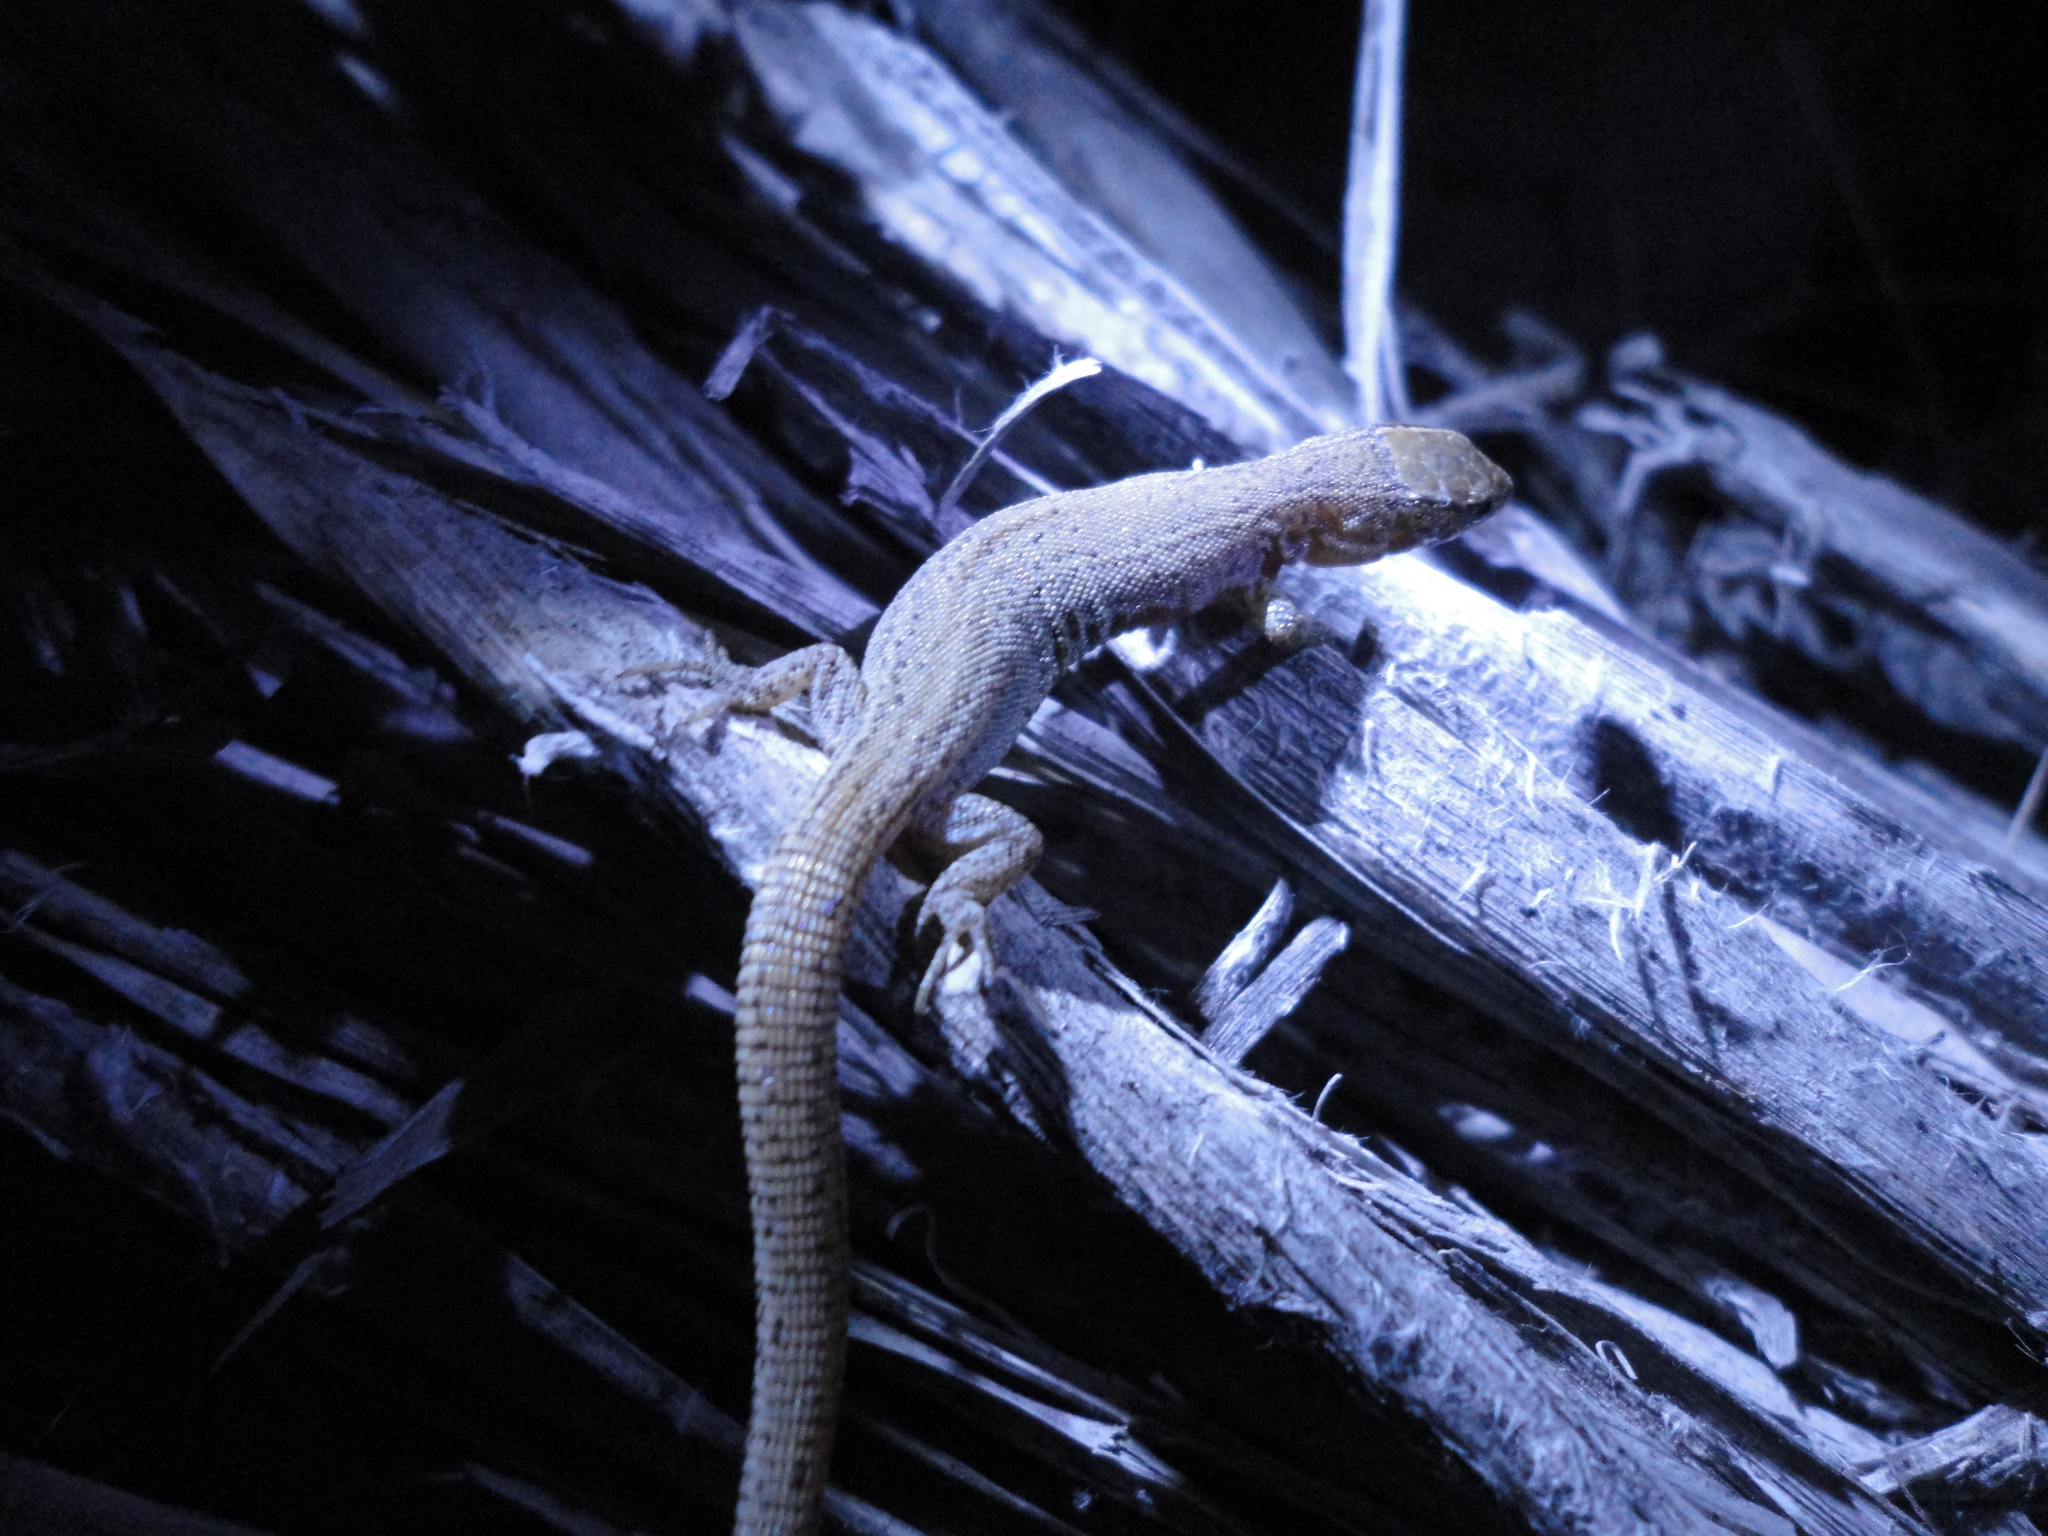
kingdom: Animalia
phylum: Chordata
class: Squamata
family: Xantusiidae
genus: Xantusia
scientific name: Xantusia extorris
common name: Durangoan night lizard
